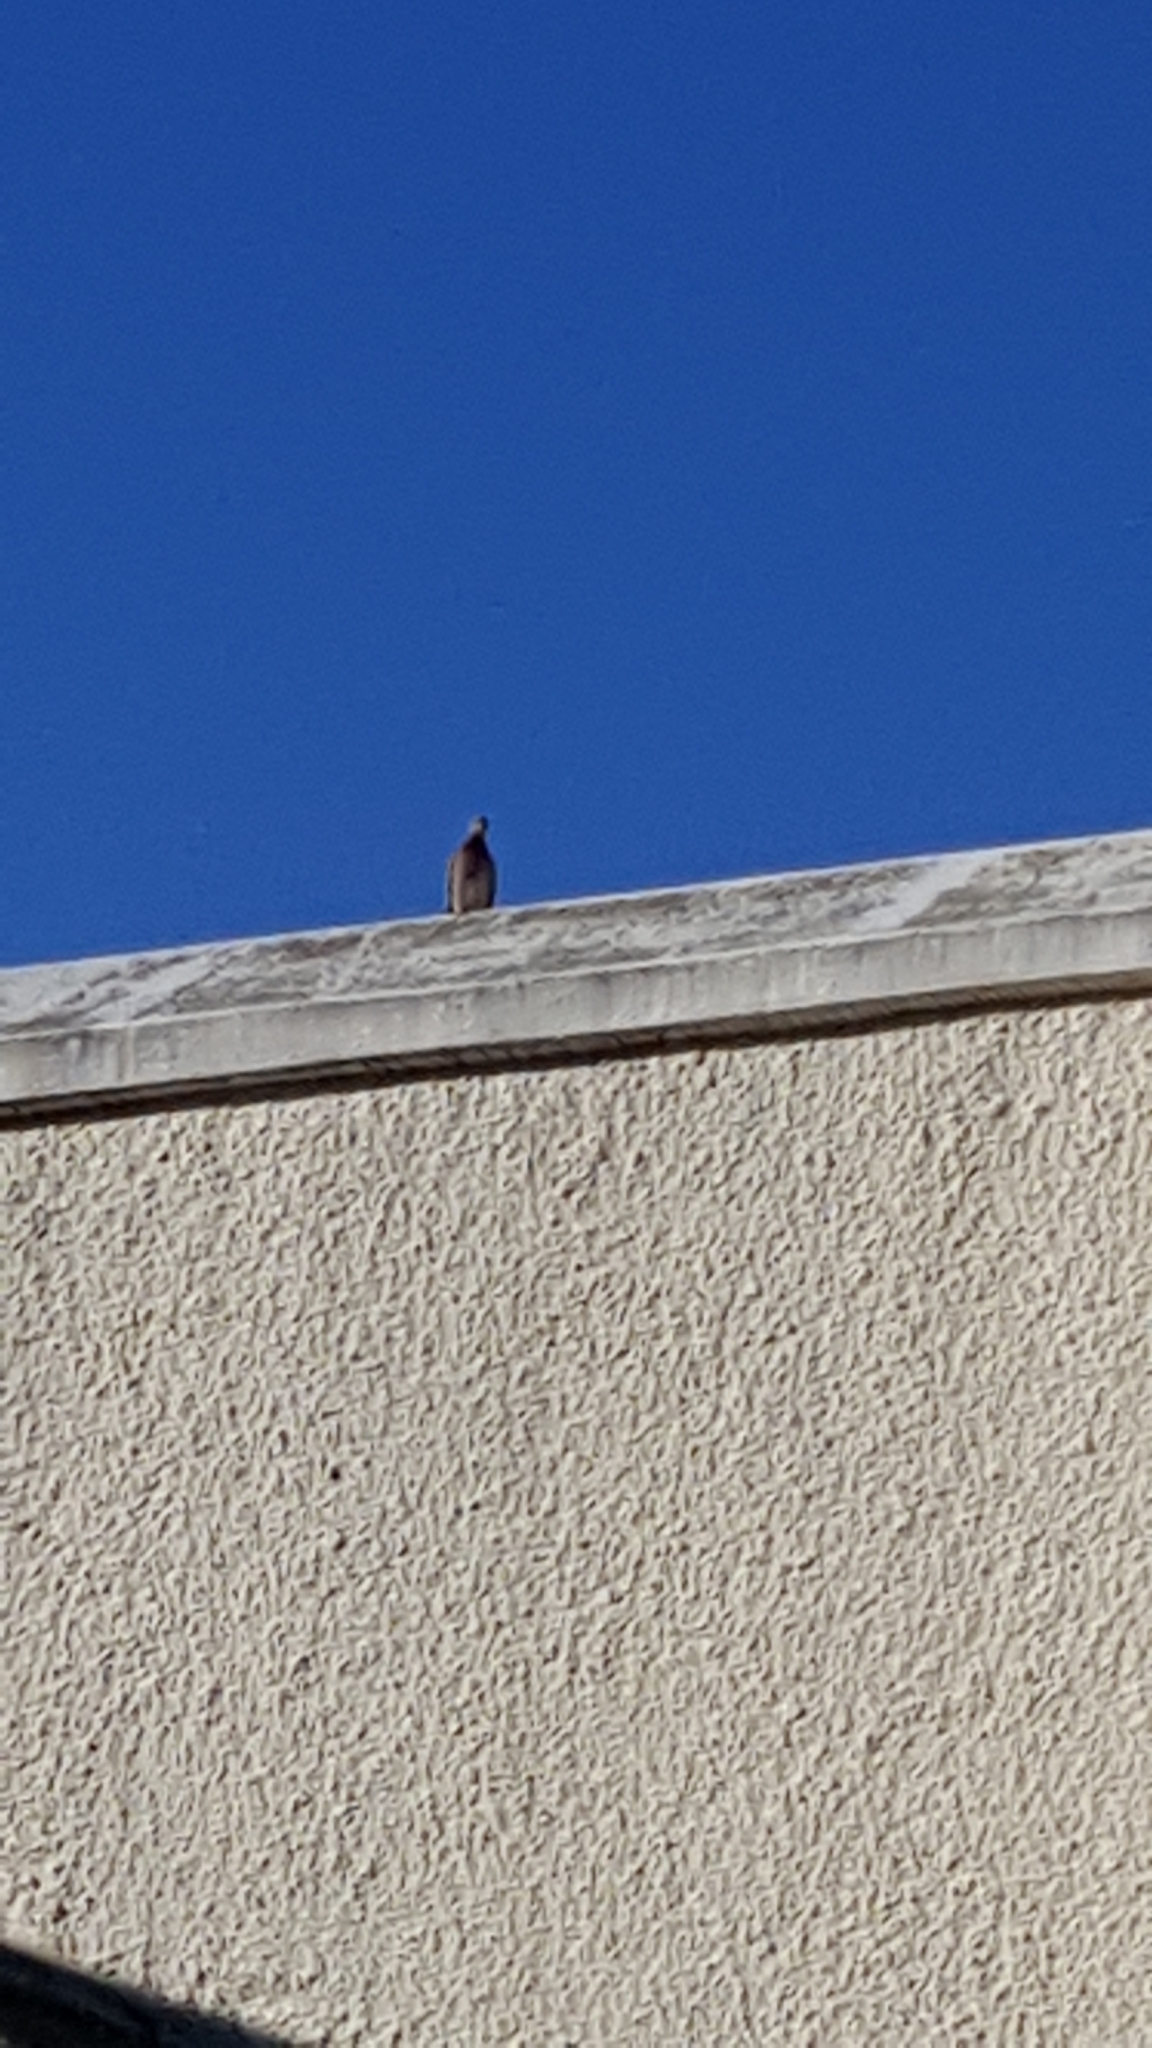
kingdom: Animalia
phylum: Chordata
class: Aves
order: Columbiformes
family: Columbidae
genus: Spilopelia
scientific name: Spilopelia senegalensis
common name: Laughing dove
